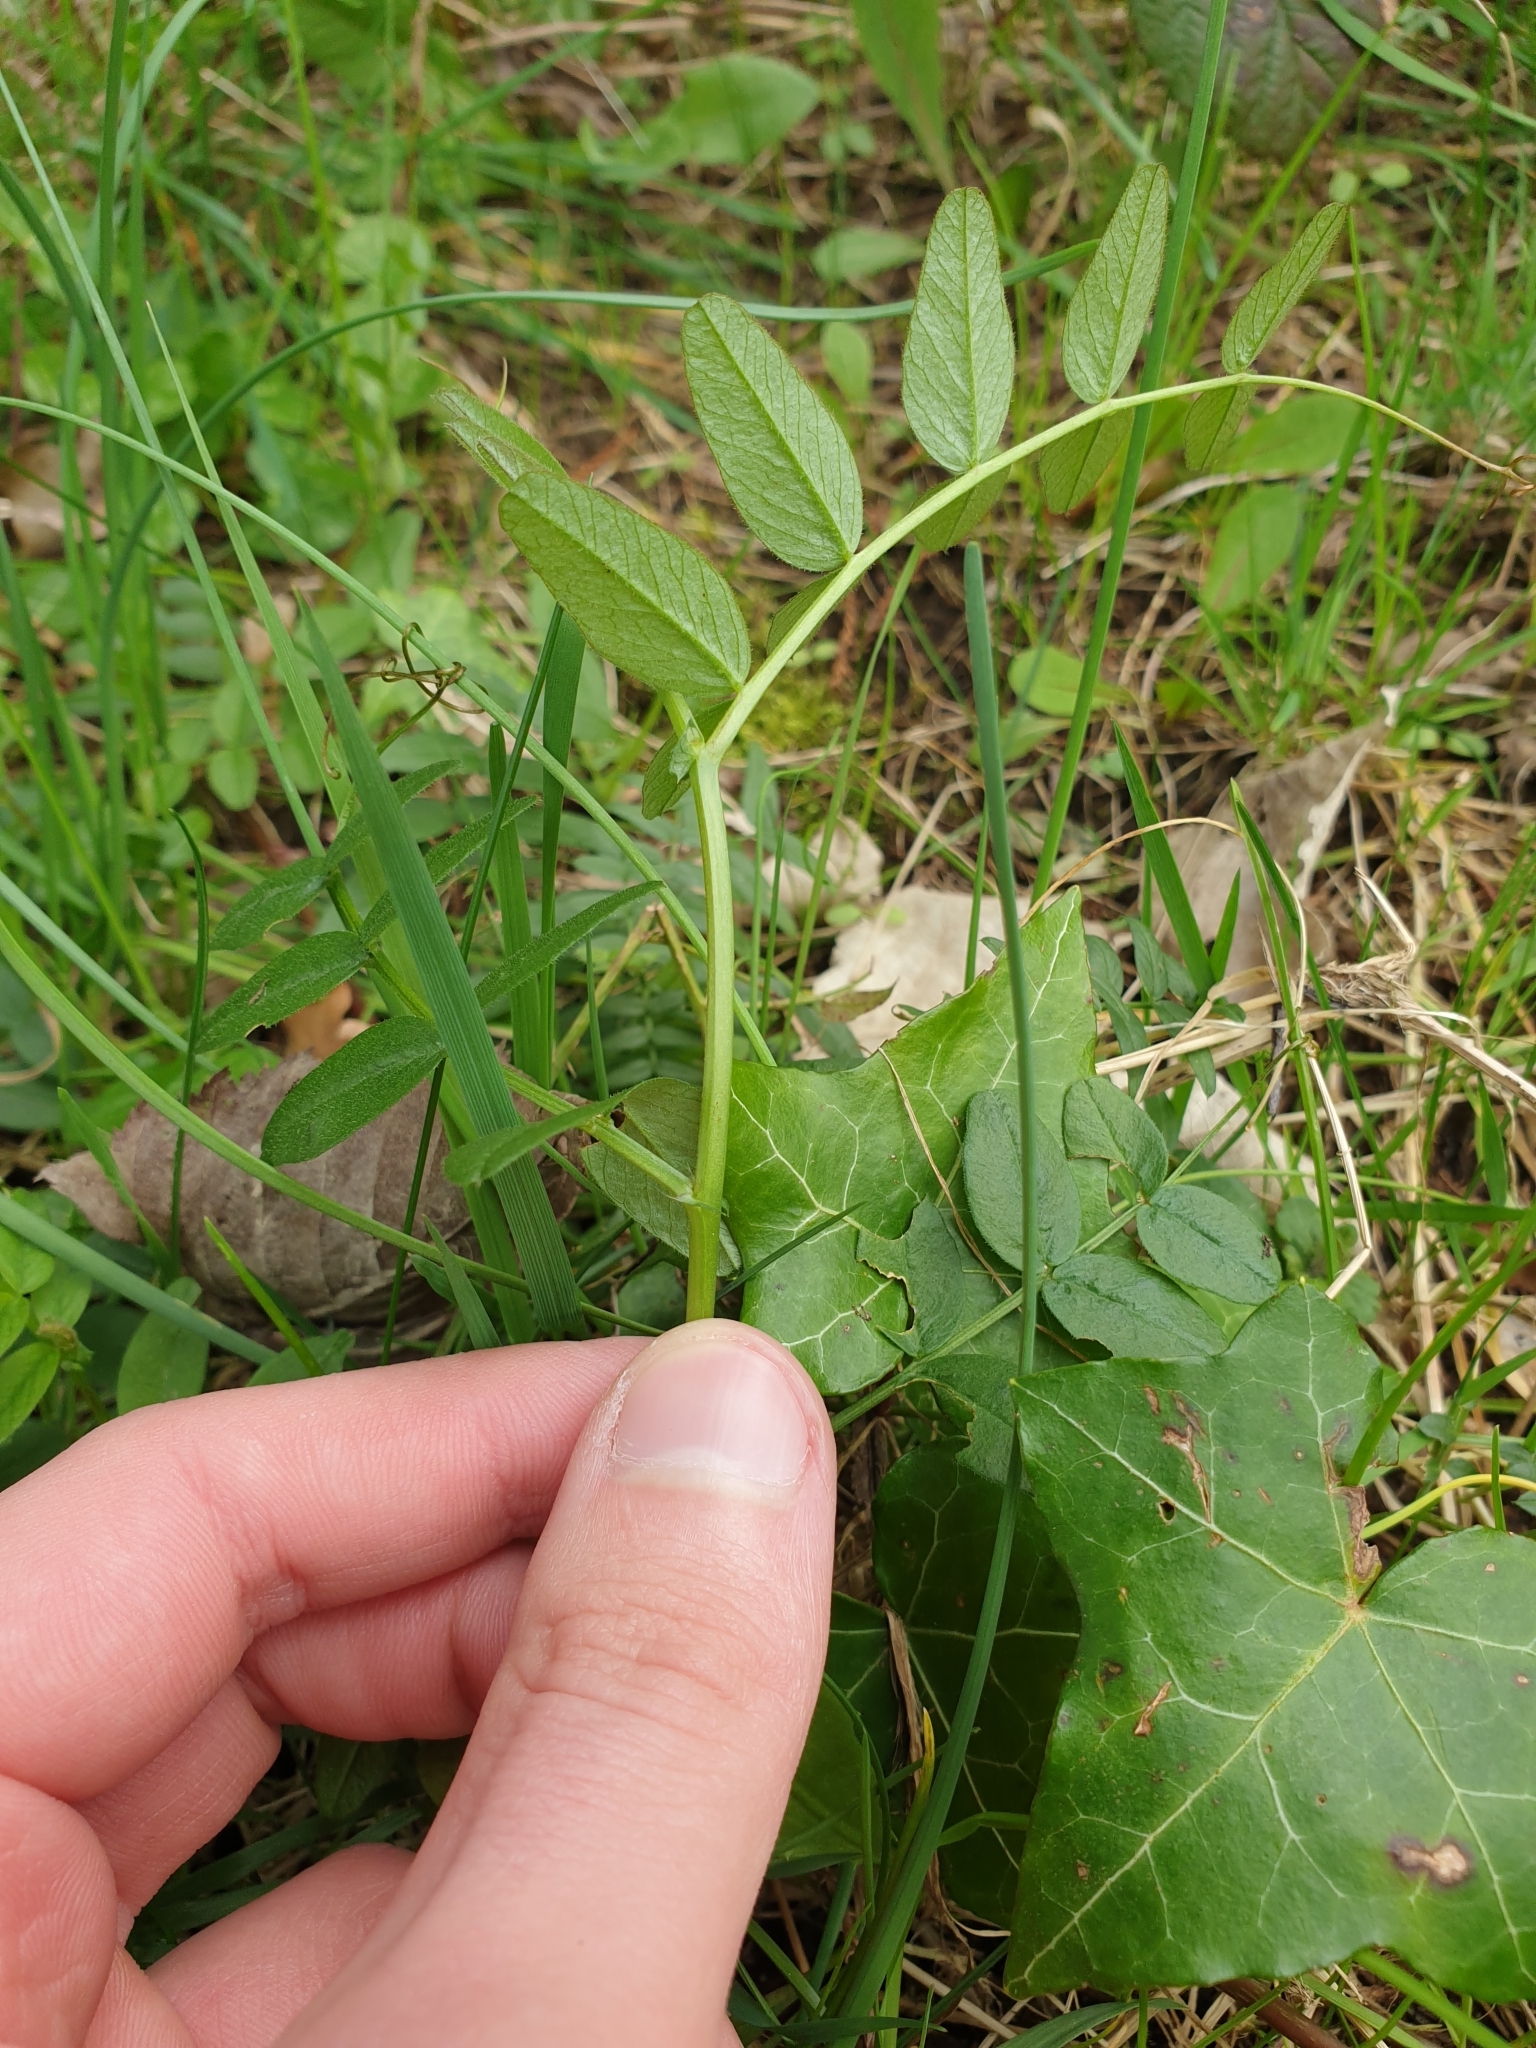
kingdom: Plantae
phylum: Tracheophyta
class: Magnoliopsida
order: Fabales
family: Fabaceae
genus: Vicia
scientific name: Vicia sepium
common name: Bush vetch
